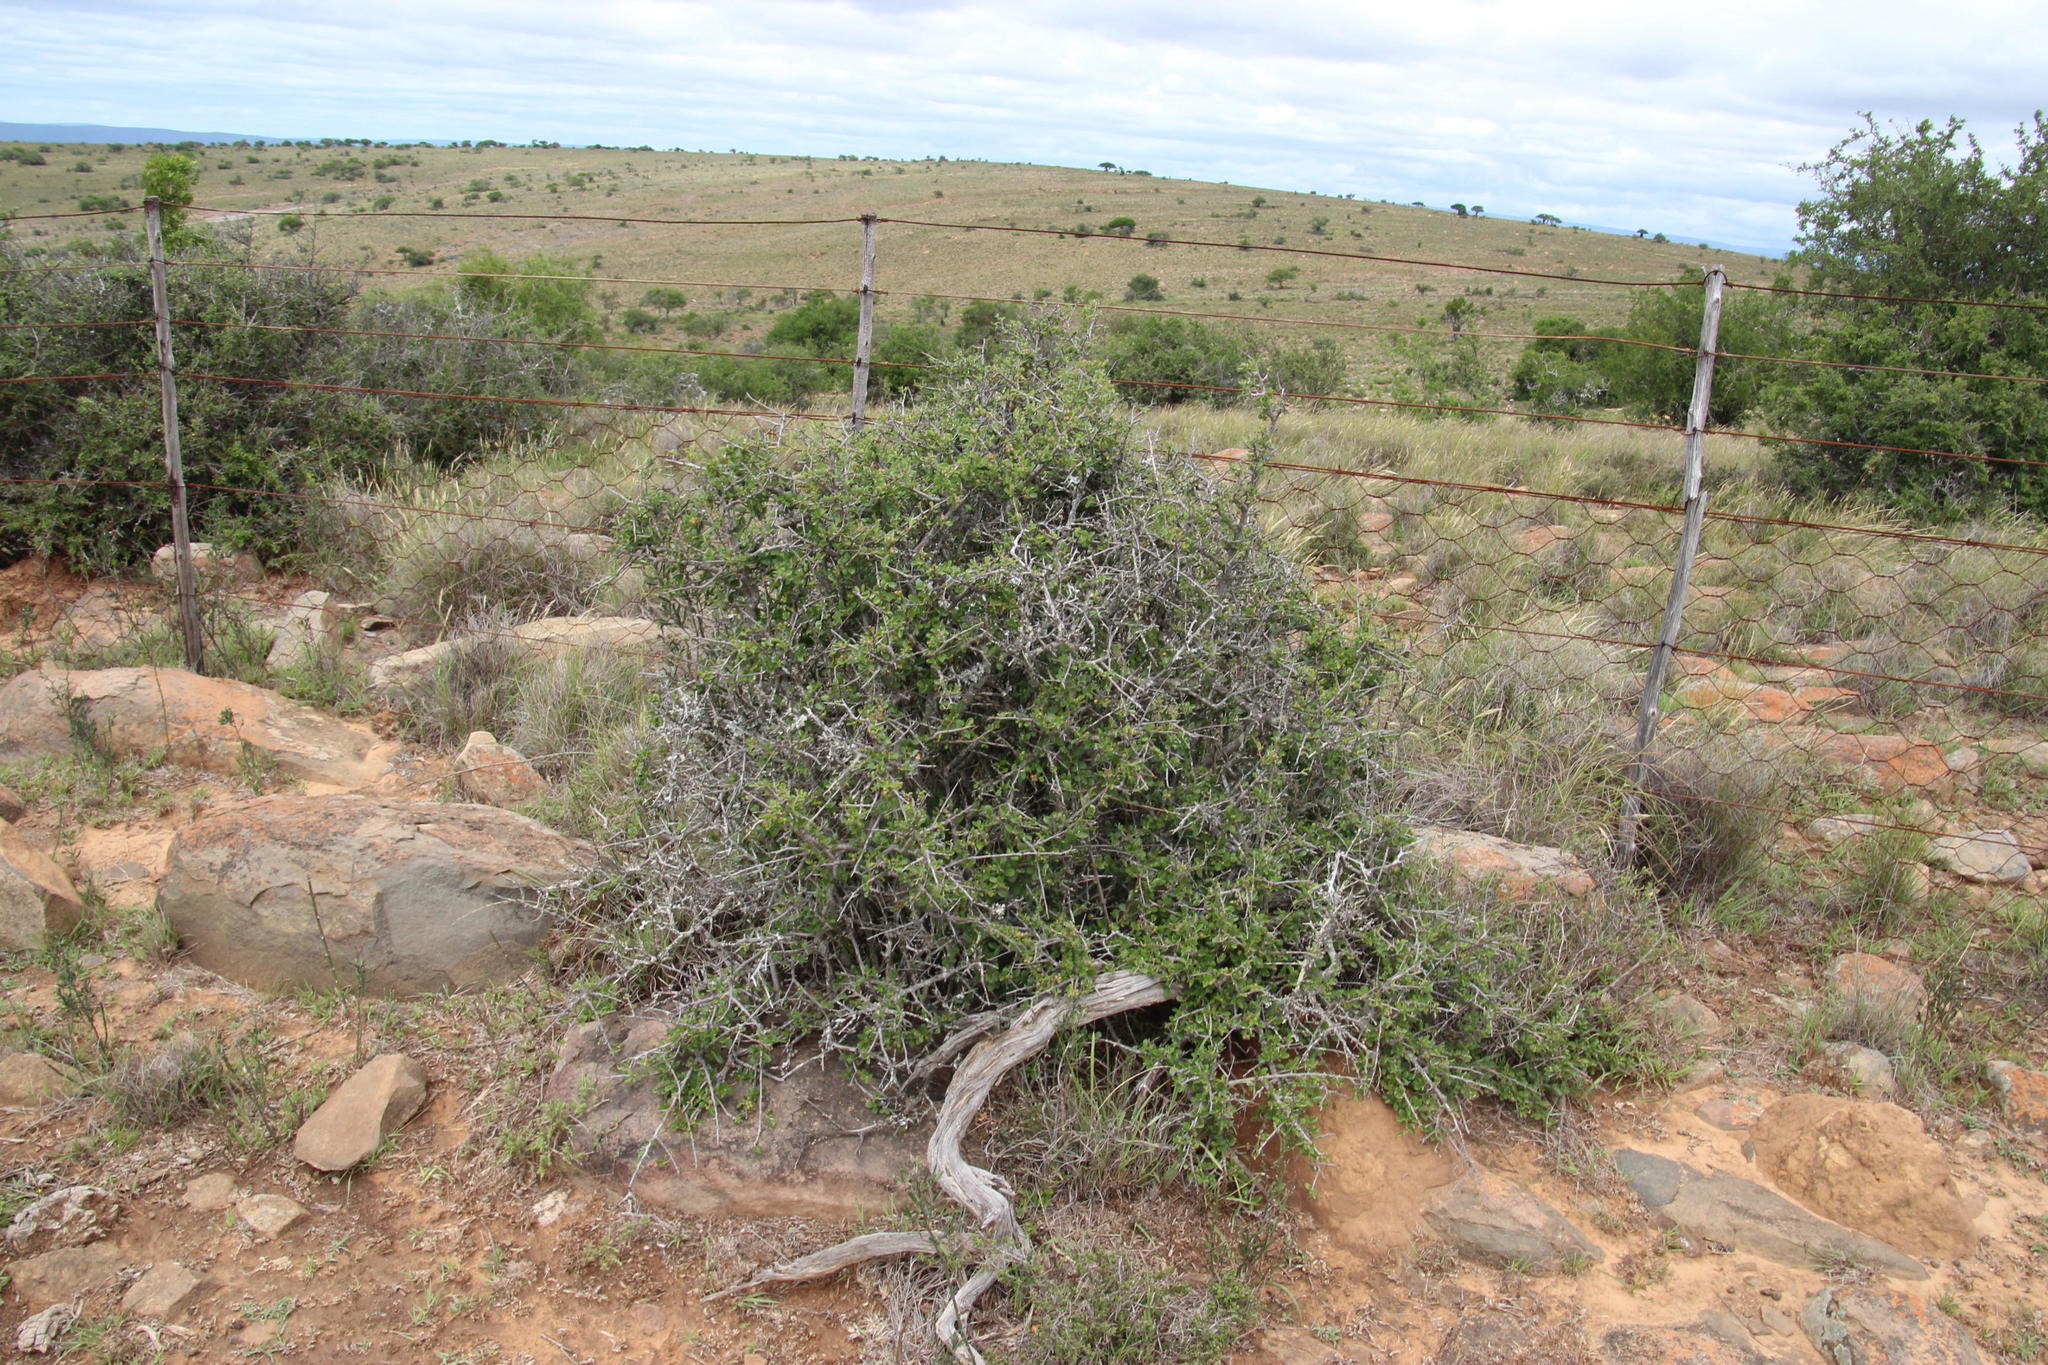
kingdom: Plantae
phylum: Tracheophyta
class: Magnoliopsida
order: Malvales
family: Malvaceae
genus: Grewia
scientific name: Grewia robusta
